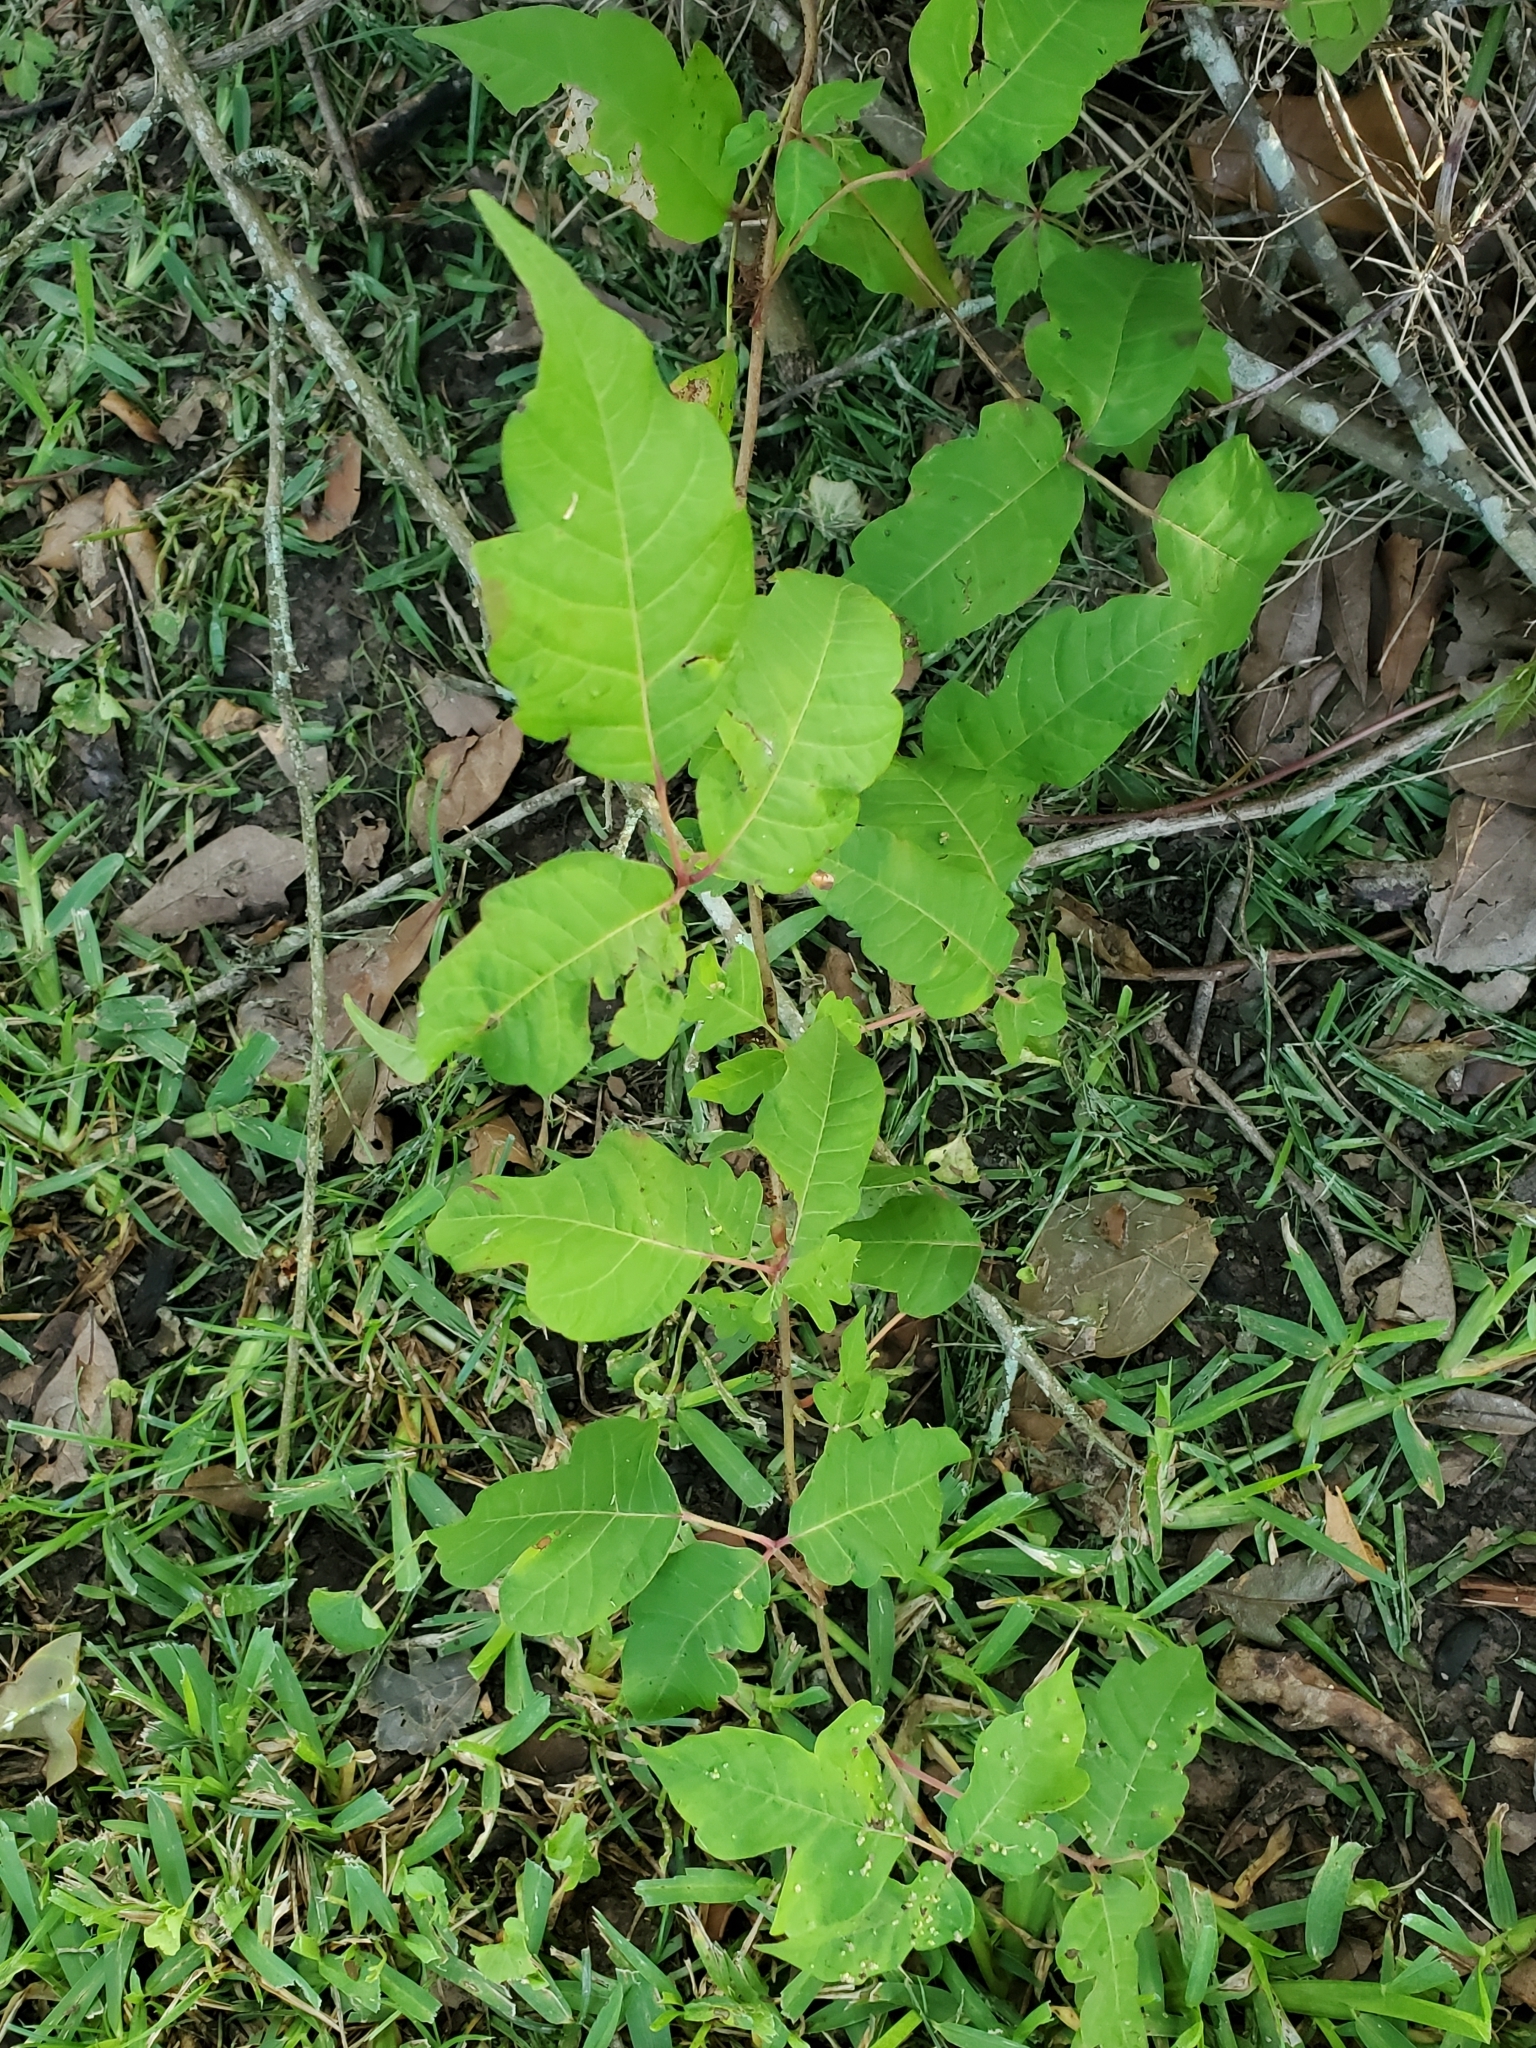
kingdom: Plantae
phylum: Tracheophyta
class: Magnoliopsida
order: Sapindales
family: Anacardiaceae
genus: Toxicodendron
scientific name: Toxicodendron radicans
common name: Poison ivy
